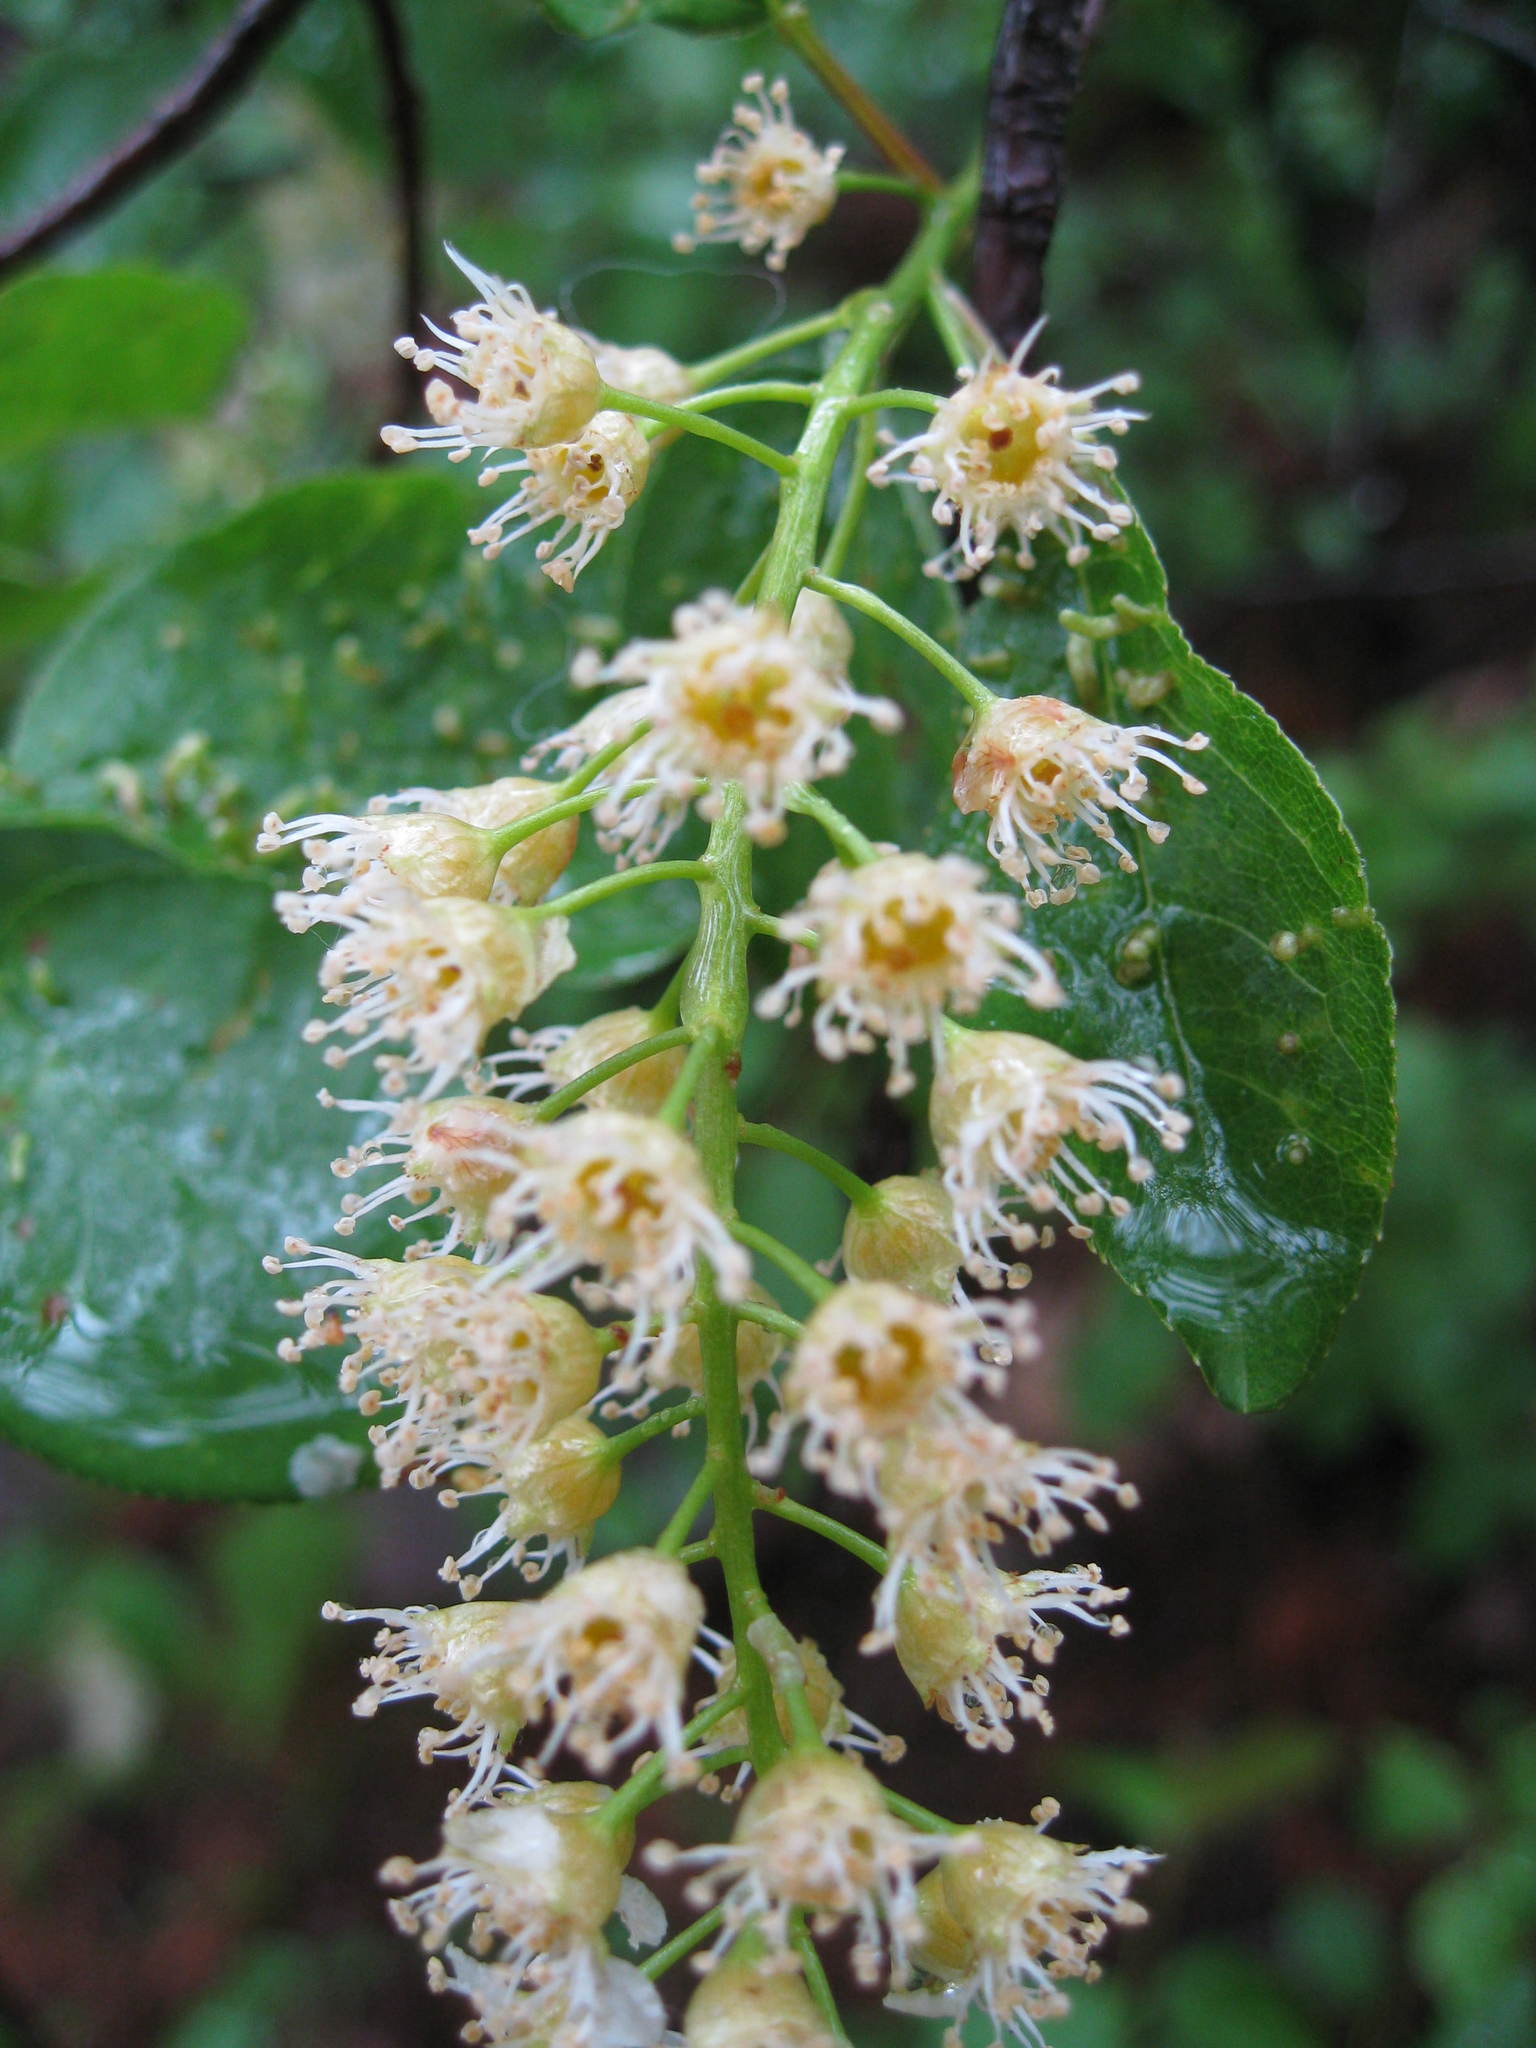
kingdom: Plantae
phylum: Tracheophyta
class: Magnoliopsida
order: Rosales
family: Rosaceae
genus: Prunus
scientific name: Prunus virginiana
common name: Chokecherry
